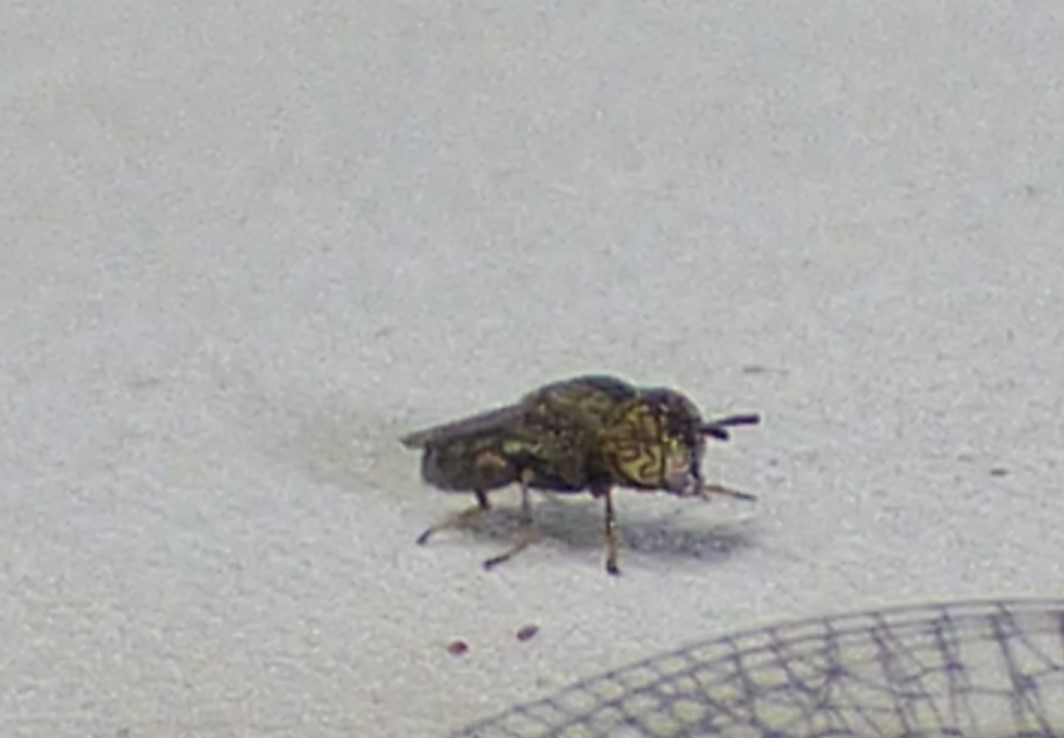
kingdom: Animalia
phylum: Arthropoda
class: Insecta
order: Diptera
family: Syrphidae
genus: Orthonevra
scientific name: Orthonevra nitida
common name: Wavy mucksucker
